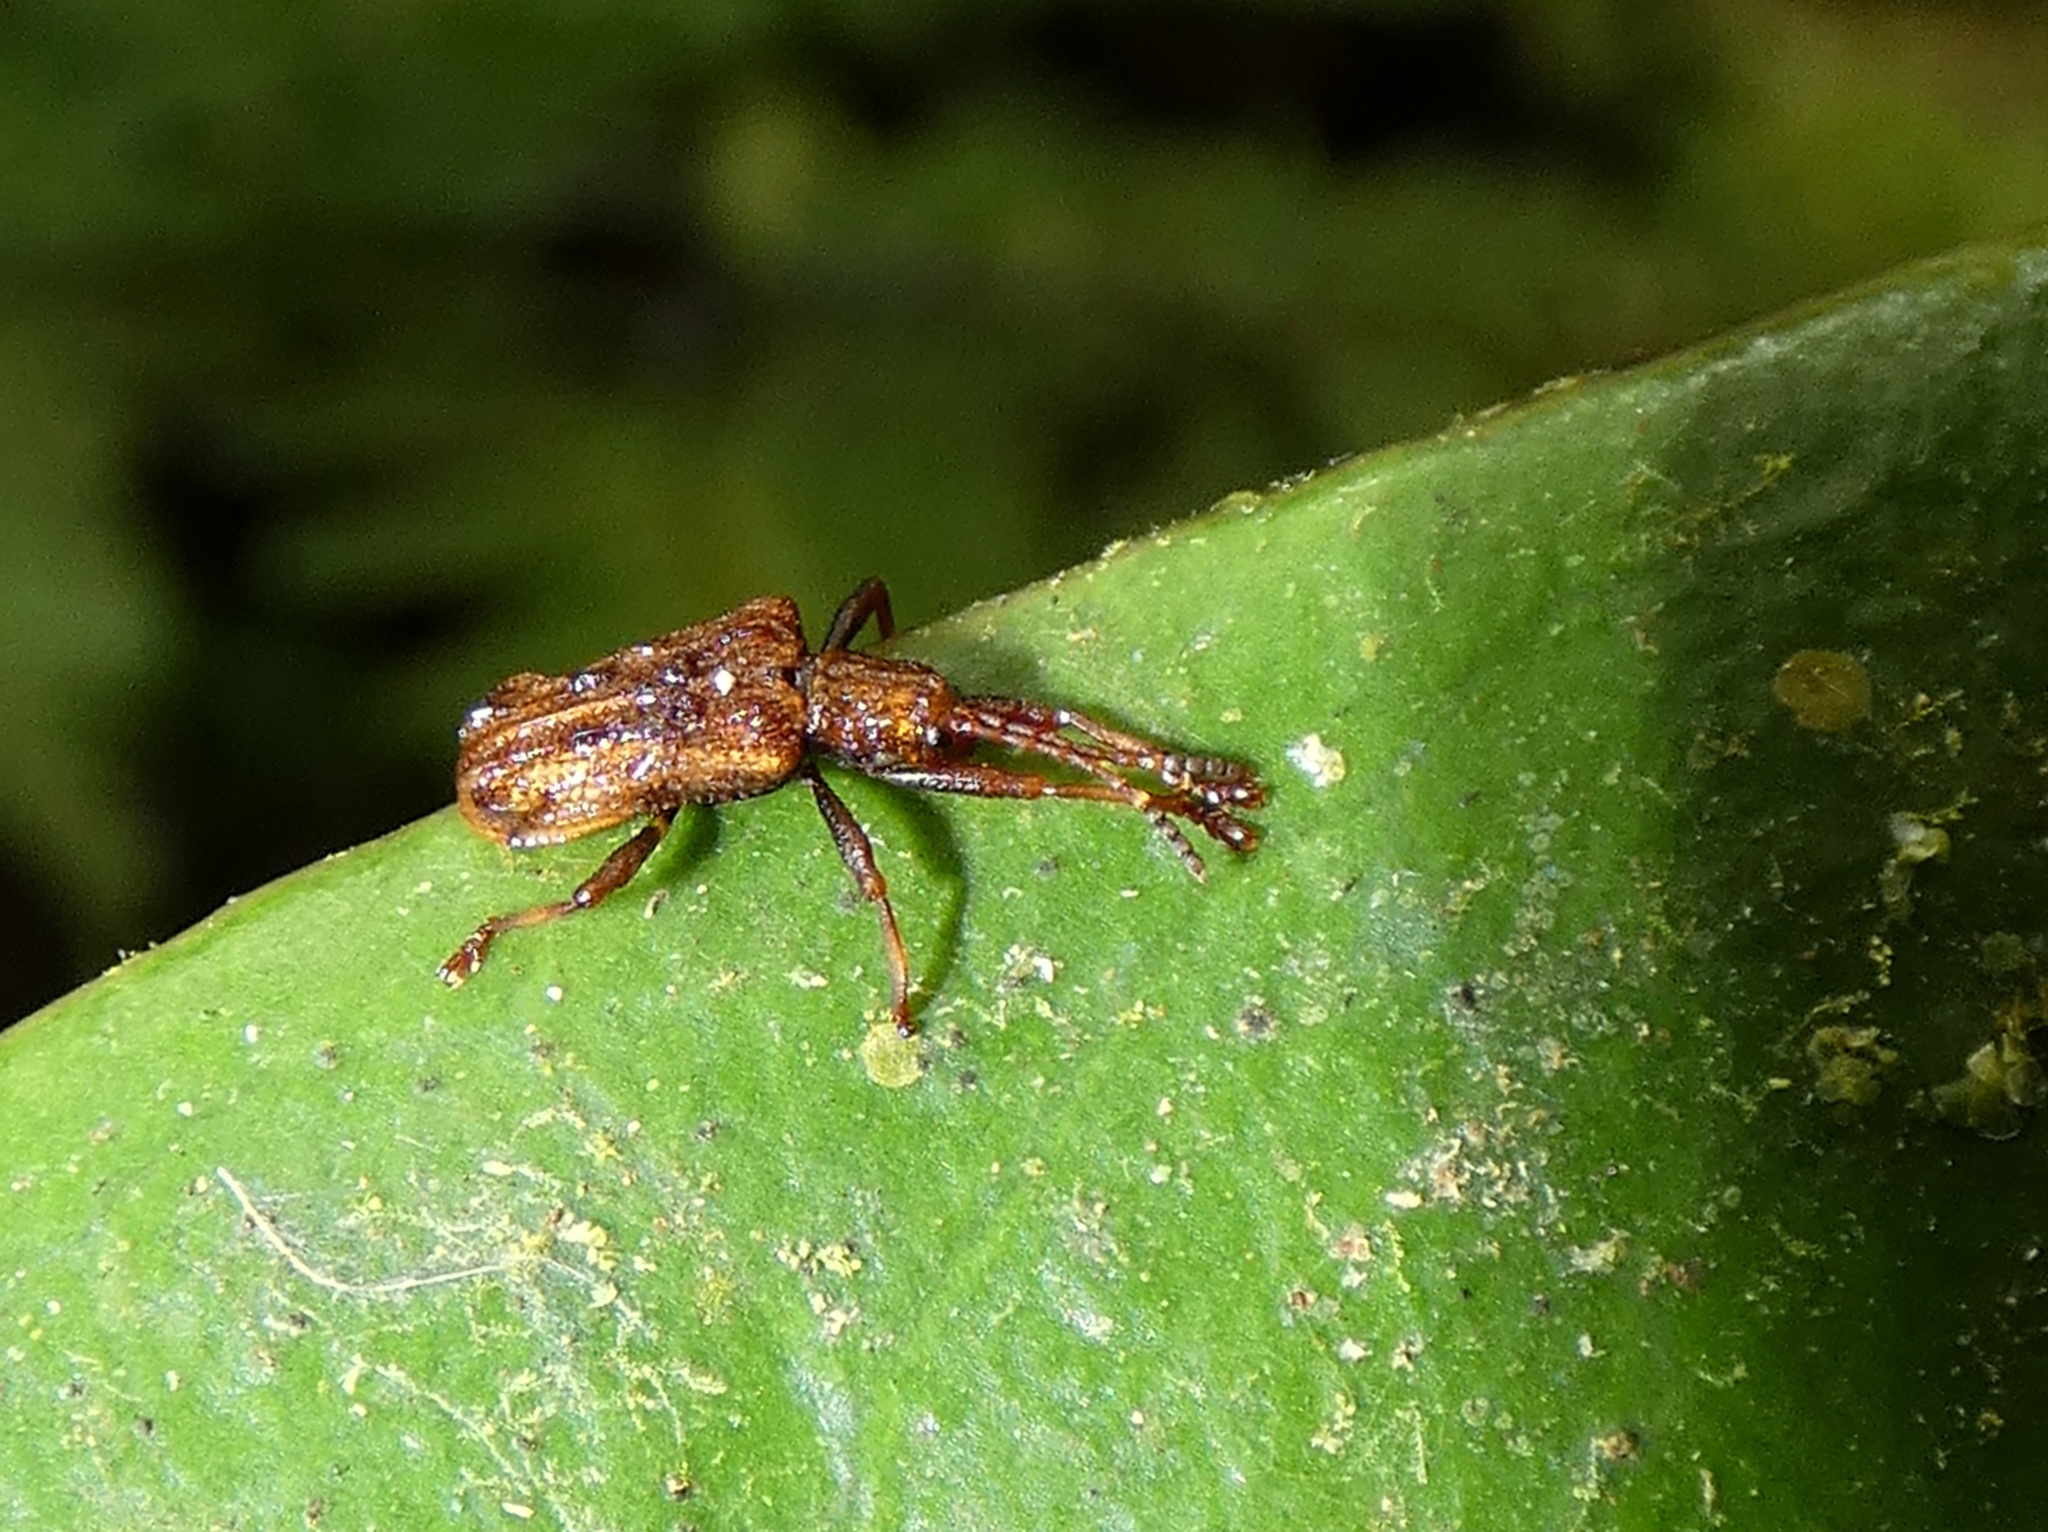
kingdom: Animalia
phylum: Arthropoda
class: Insecta
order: Coleoptera
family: Chrysomelidae
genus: Lobispa
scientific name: Lobispa callosa
